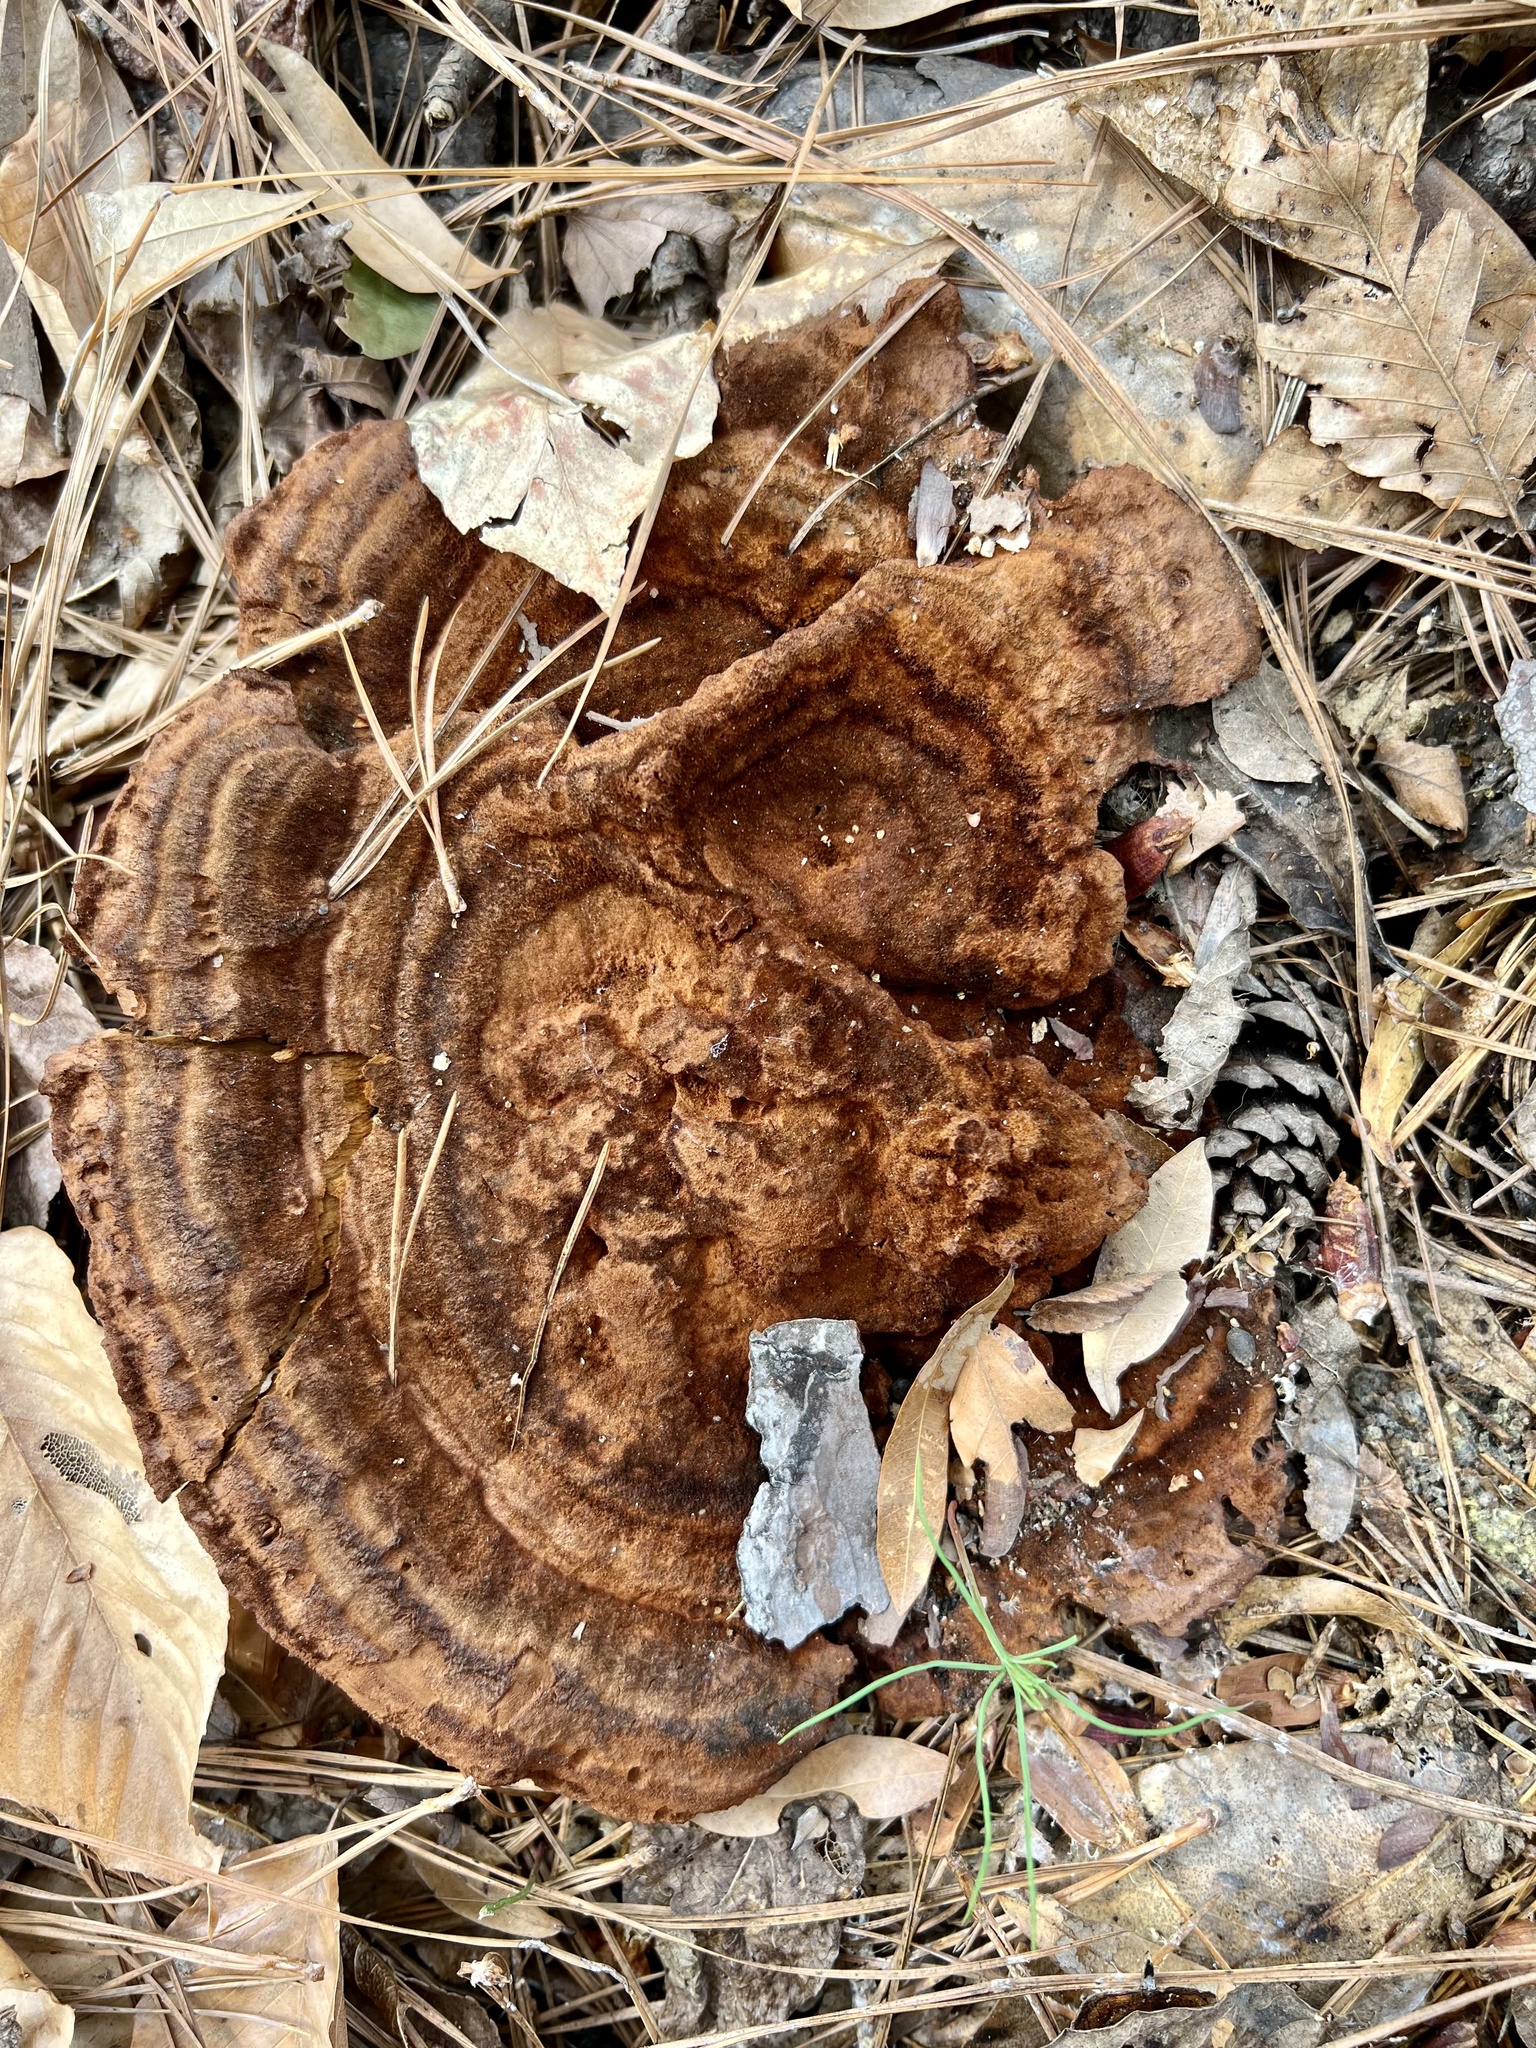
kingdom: Fungi
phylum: Basidiomycota
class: Agaricomycetes
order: Polyporales
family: Laetiporaceae
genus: Phaeolus
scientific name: Phaeolus schweinitzii
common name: Dyer's mazegill
